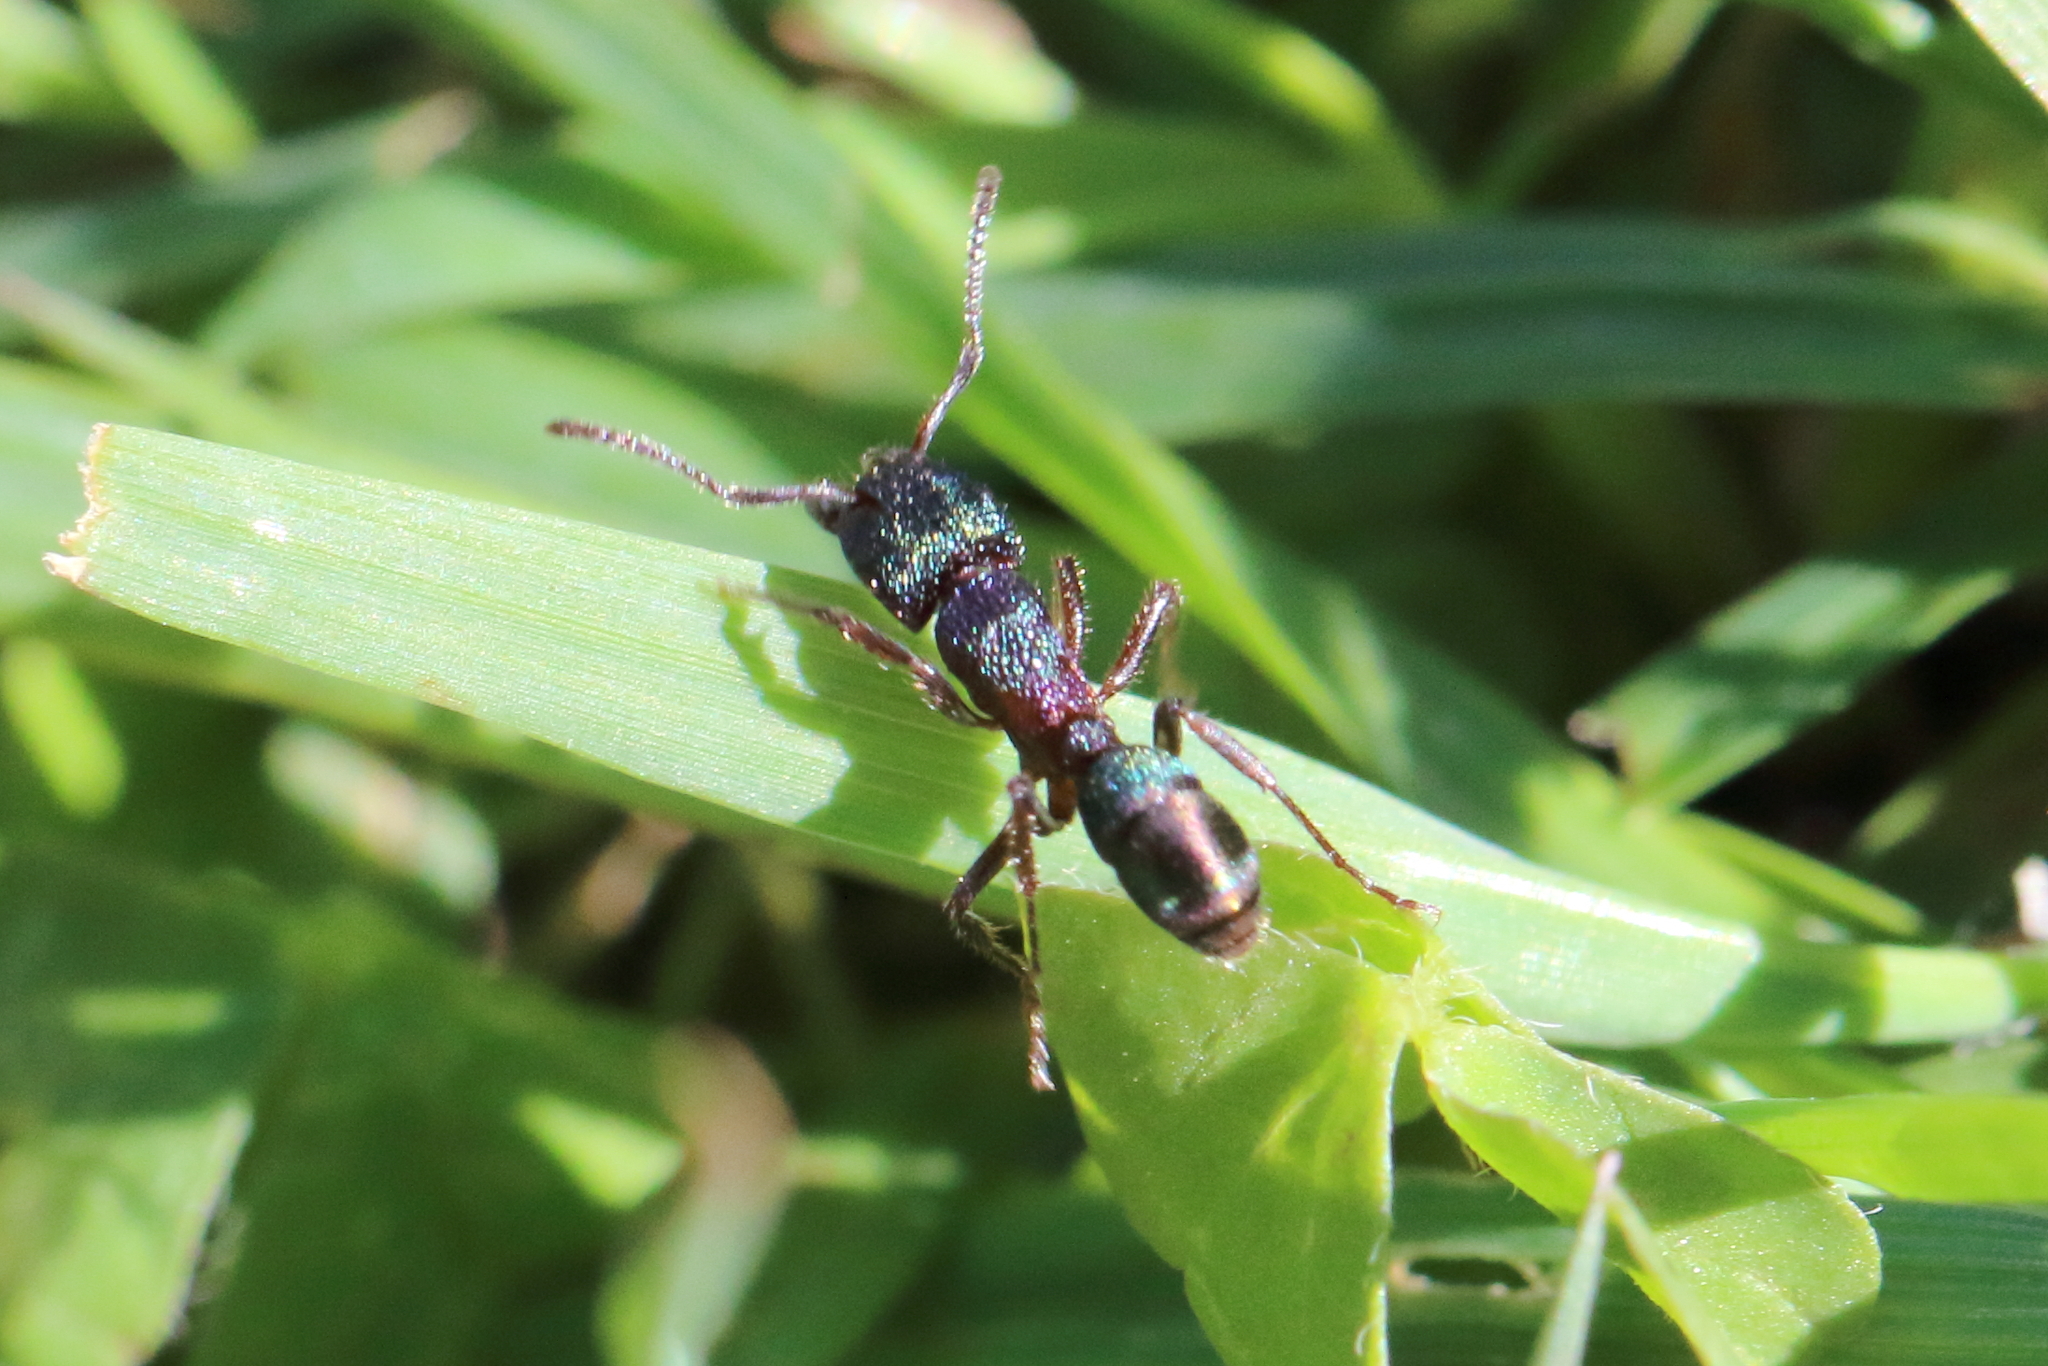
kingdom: Animalia
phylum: Arthropoda
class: Insecta
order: Hymenoptera
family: Formicidae
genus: Rhytidoponera
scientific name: Rhytidoponera metallica
